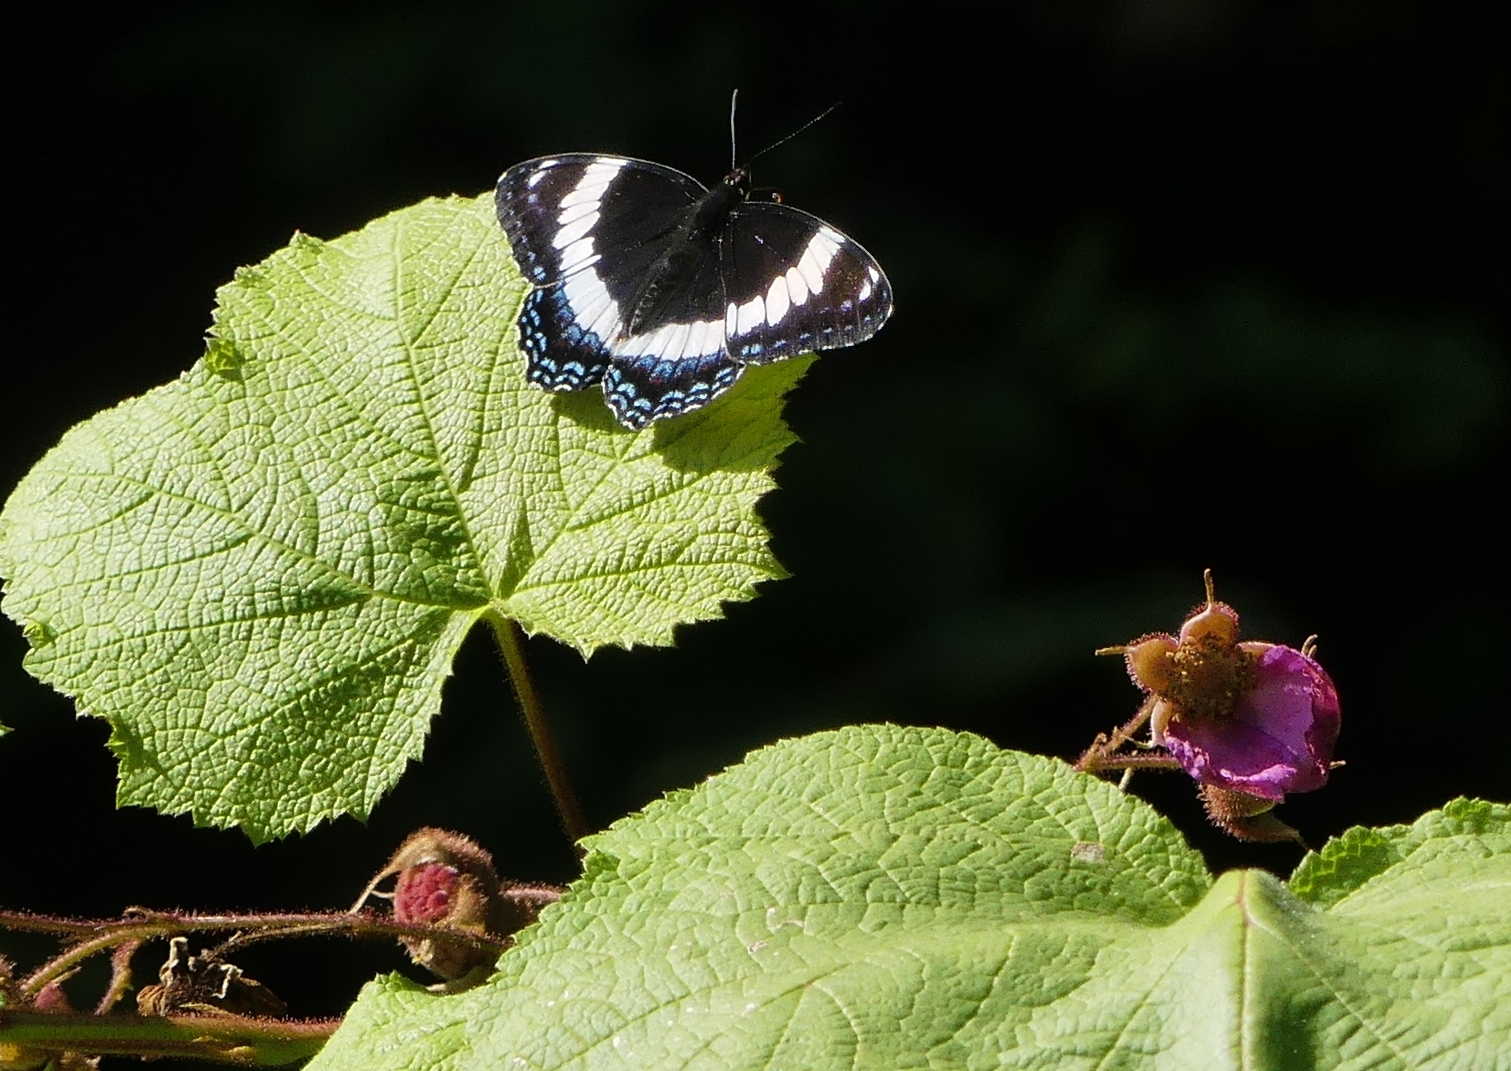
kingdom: Animalia
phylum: Arthropoda
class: Insecta
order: Lepidoptera
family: Nymphalidae
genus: Limenitis
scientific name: Limenitis arthemis
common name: Red-spotted admiral
